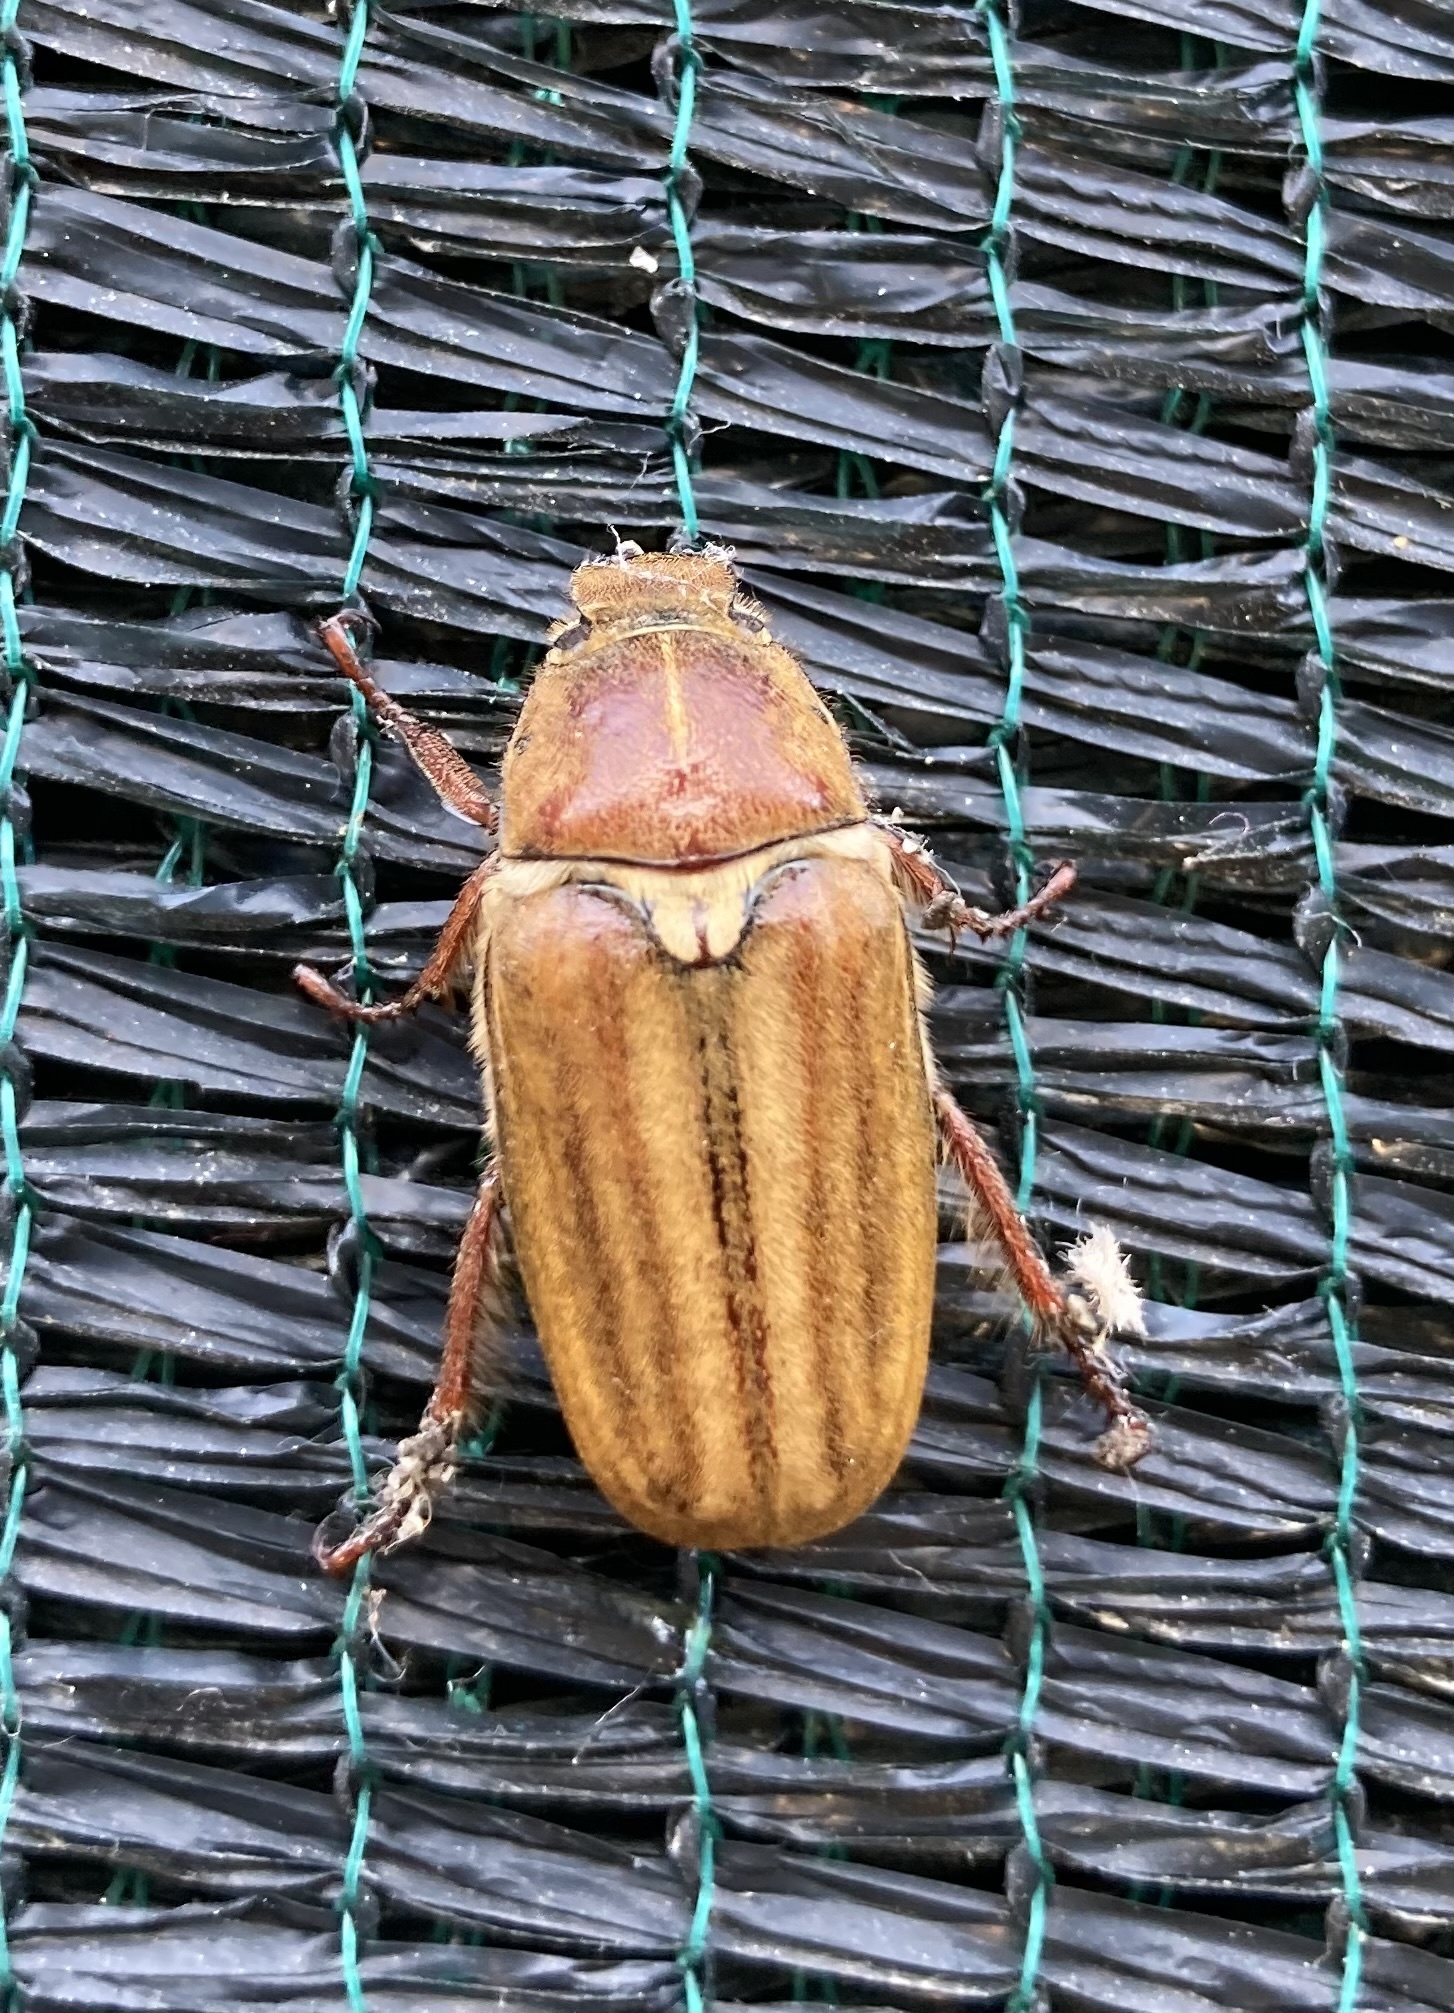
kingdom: Animalia
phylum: Arthropoda
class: Insecta
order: Coleoptera
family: Scarabaeidae
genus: Anoxia
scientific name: Anoxia matutinalis
